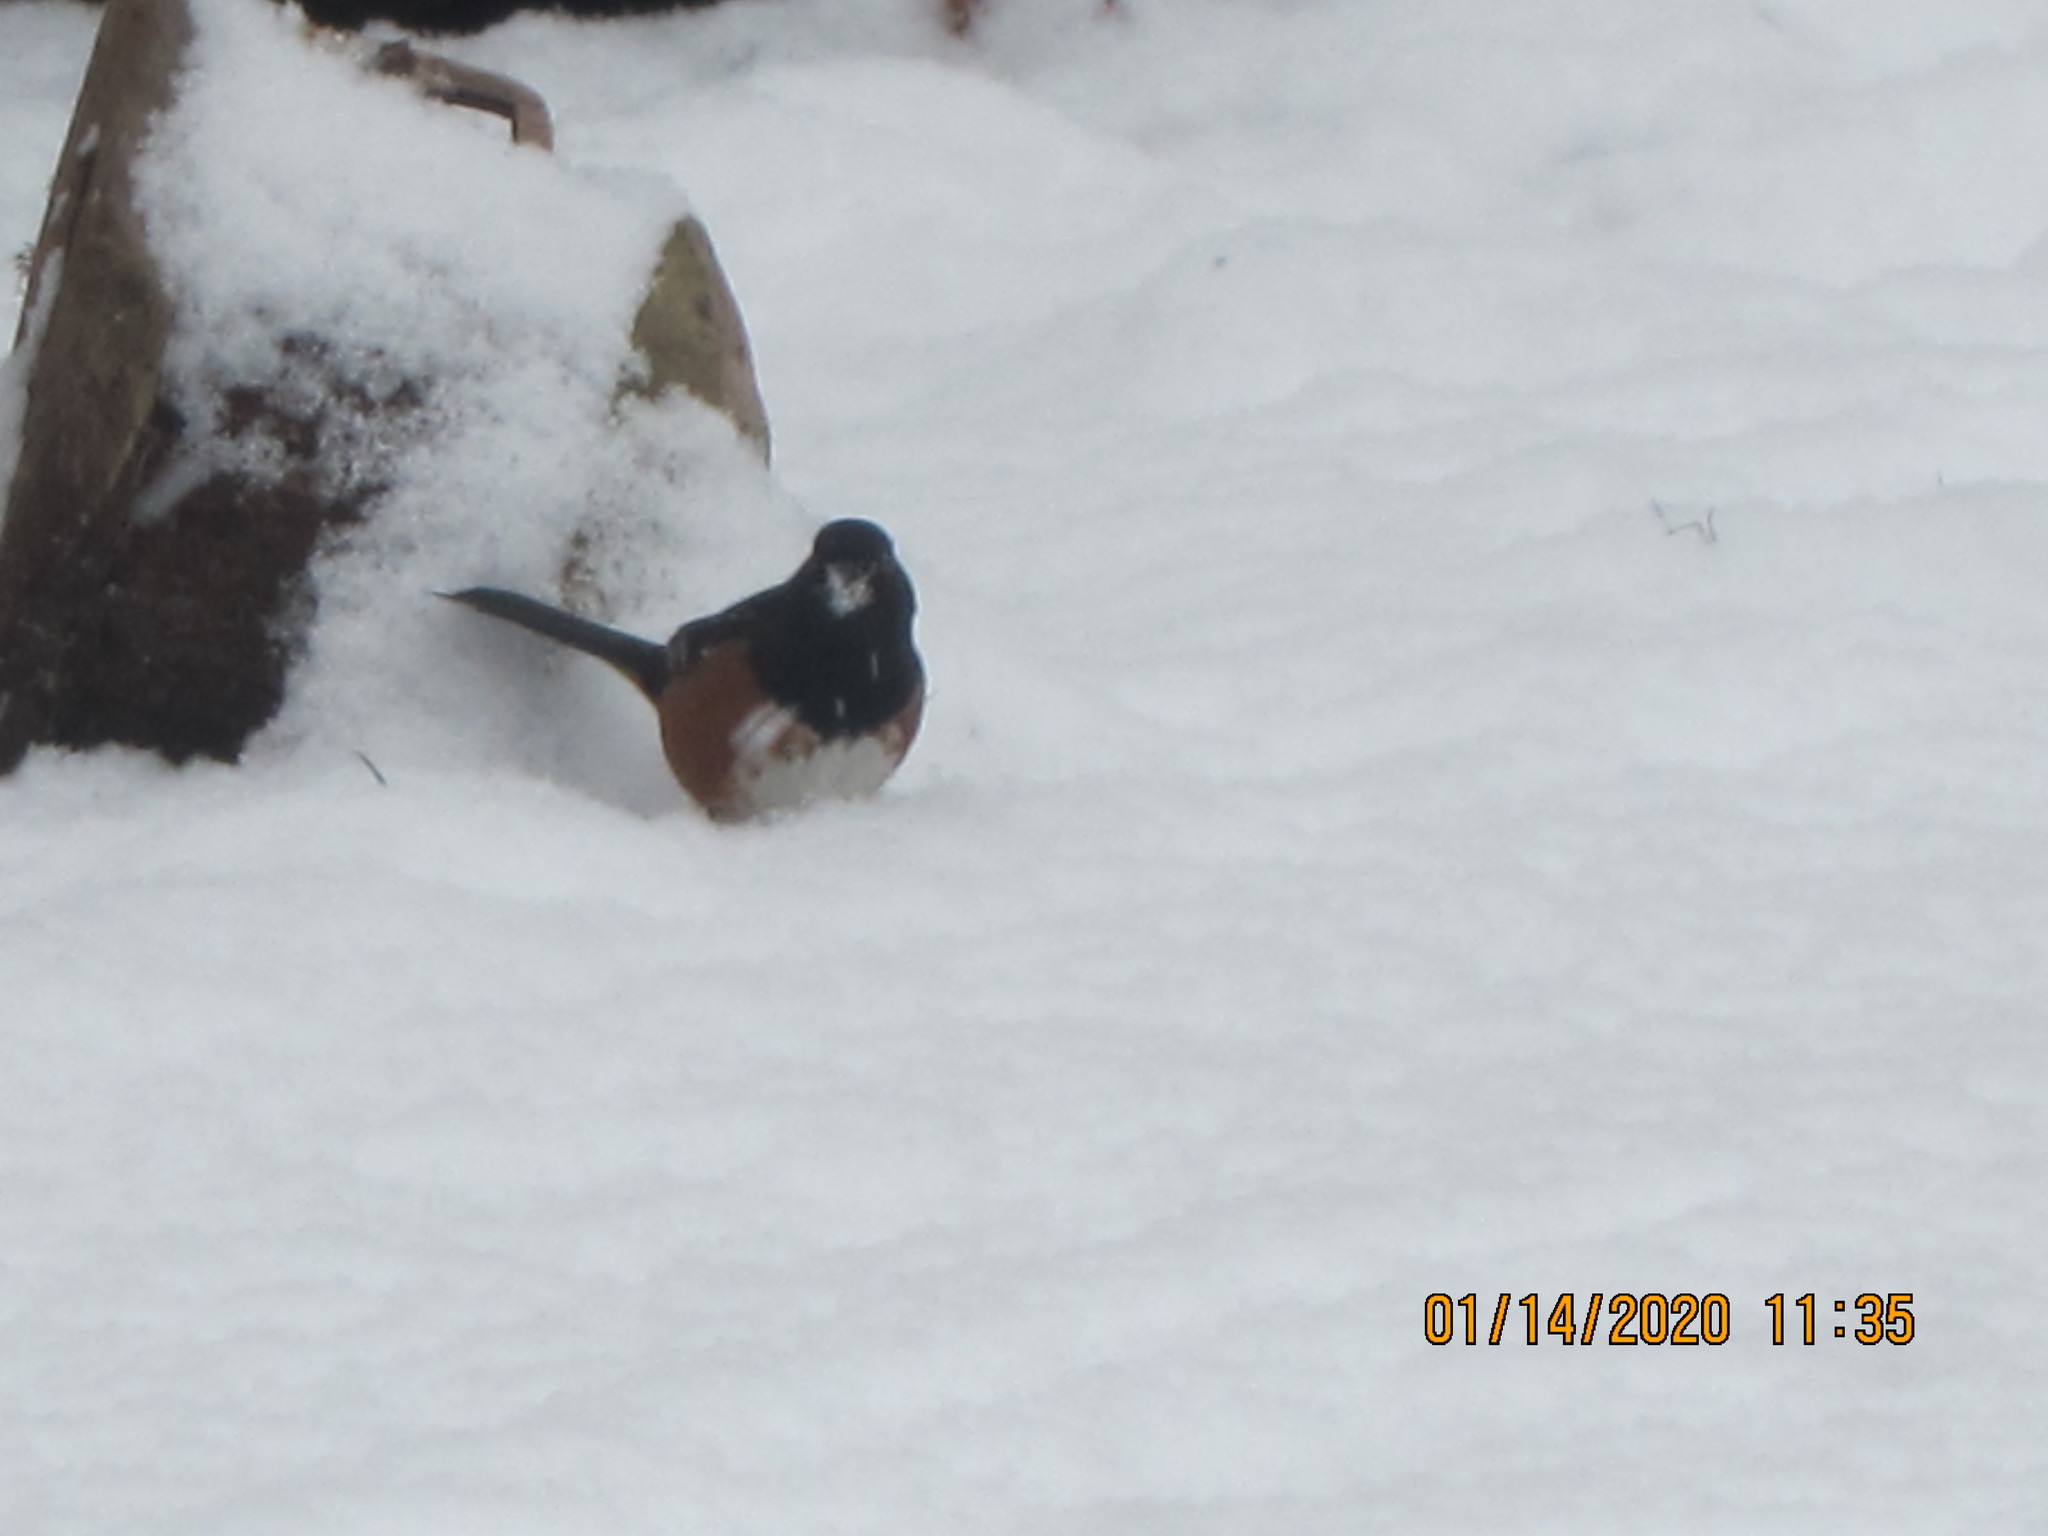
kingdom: Animalia
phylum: Chordata
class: Aves
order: Passeriformes
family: Passerellidae
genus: Pipilo
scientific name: Pipilo maculatus
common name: Spotted towhee
